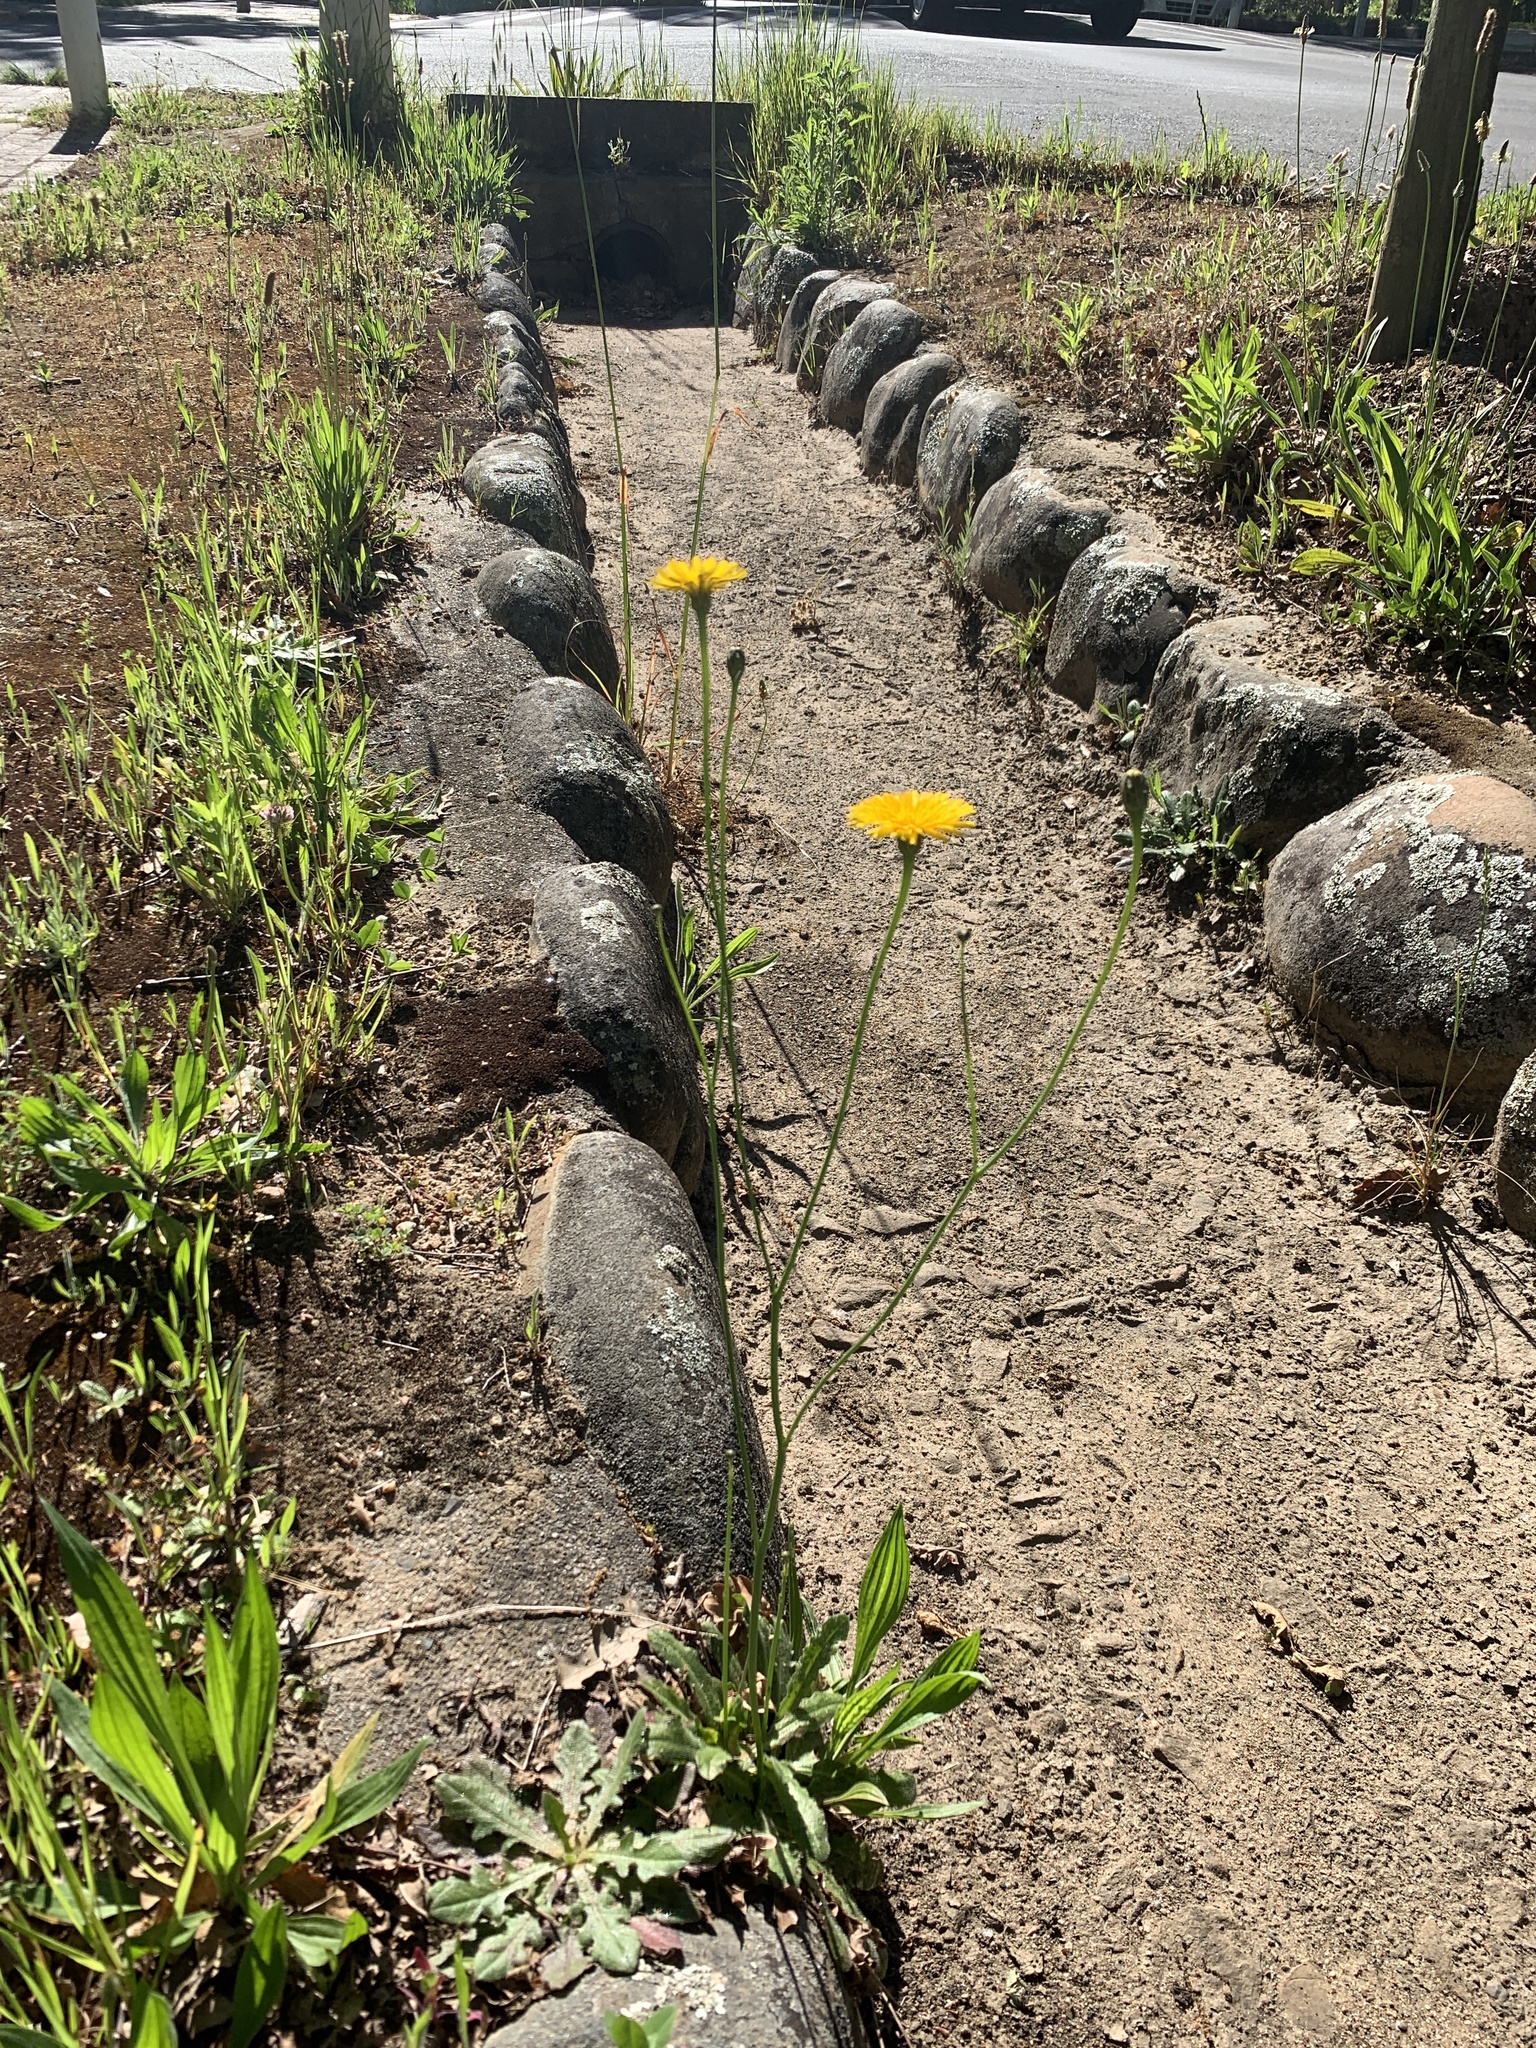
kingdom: Plantae
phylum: Tracheophyta
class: Magnoliopsida
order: Asterales
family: Asteraceae
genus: Hypochaeris
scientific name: Hypochaeris radicata
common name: Flatweed
